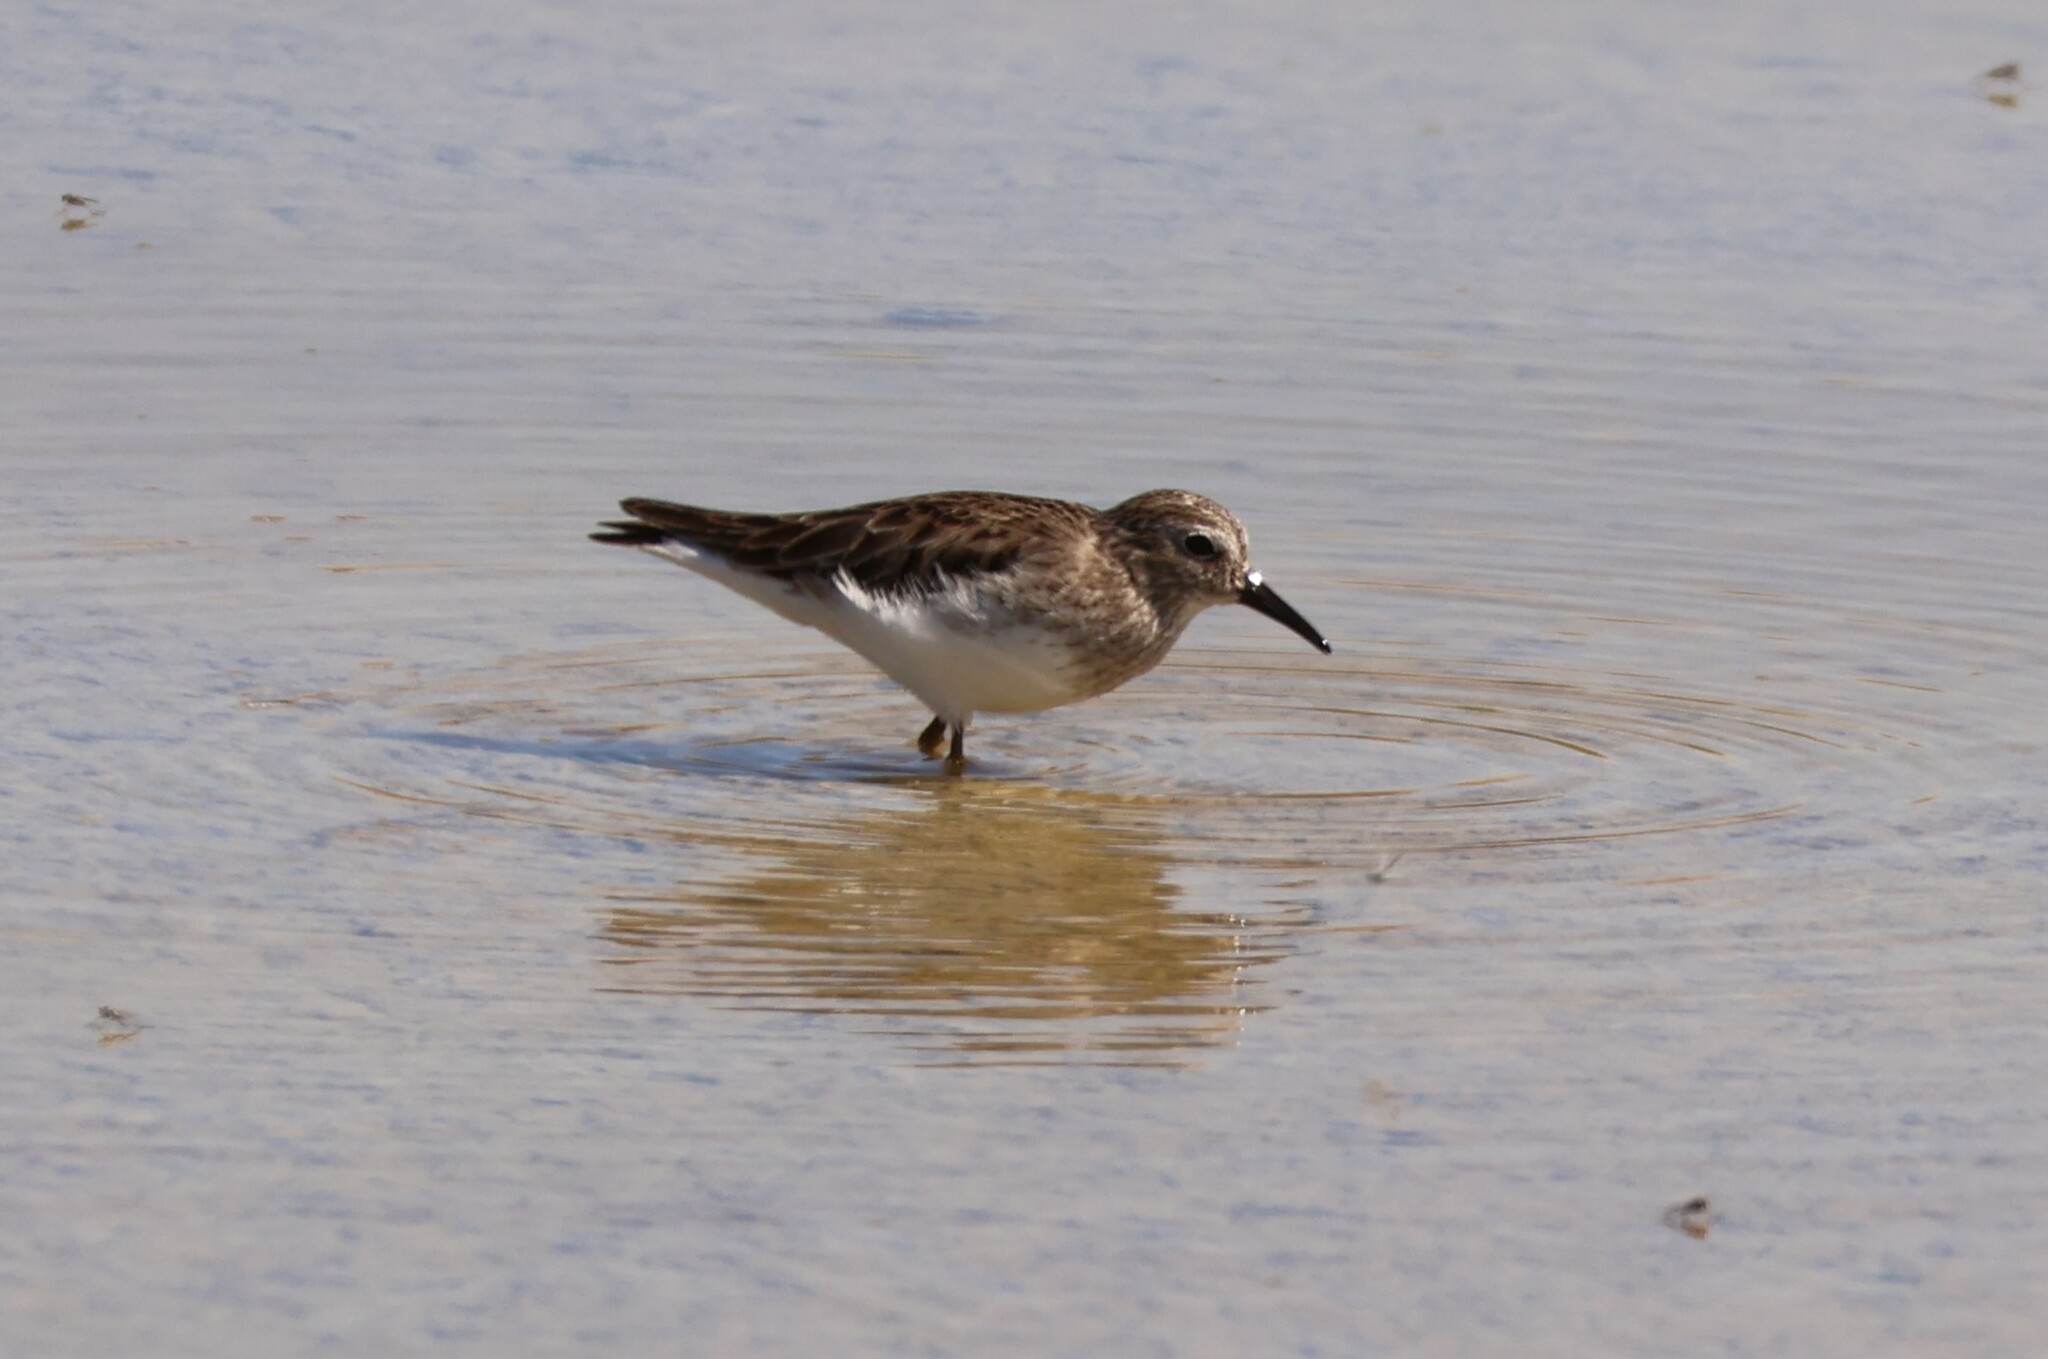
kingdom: Animalia
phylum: Chordata
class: Aves
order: Charadriiformes
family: Scolopacidae
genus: Calidris
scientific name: Calidris minutilla
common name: Least sandpiper
